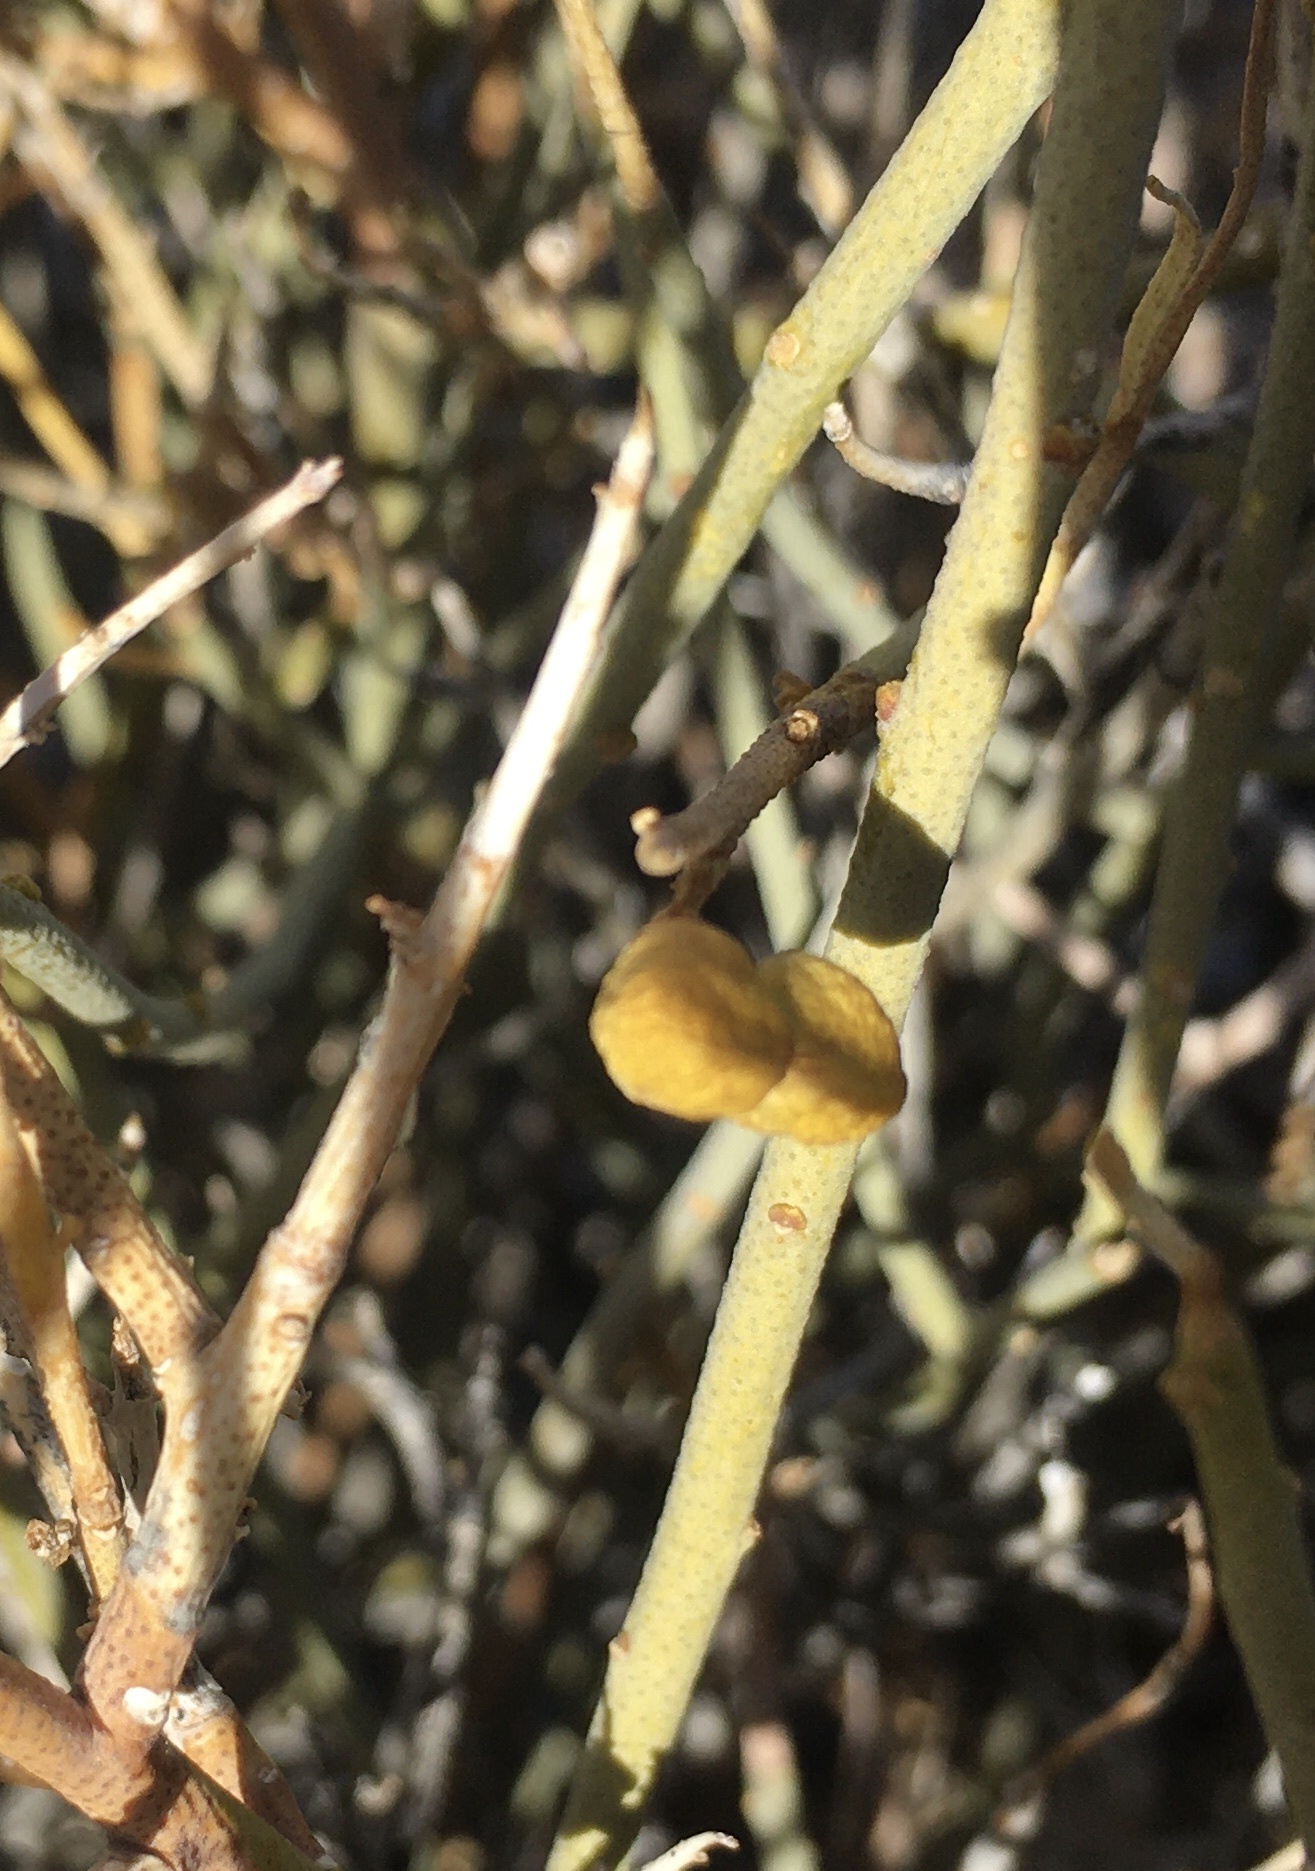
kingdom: Plantae
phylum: Tracheophyta
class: Magnoliopsida
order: Sapindales
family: Rutaceae
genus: Thamnosma
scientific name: Thamnosma montana
